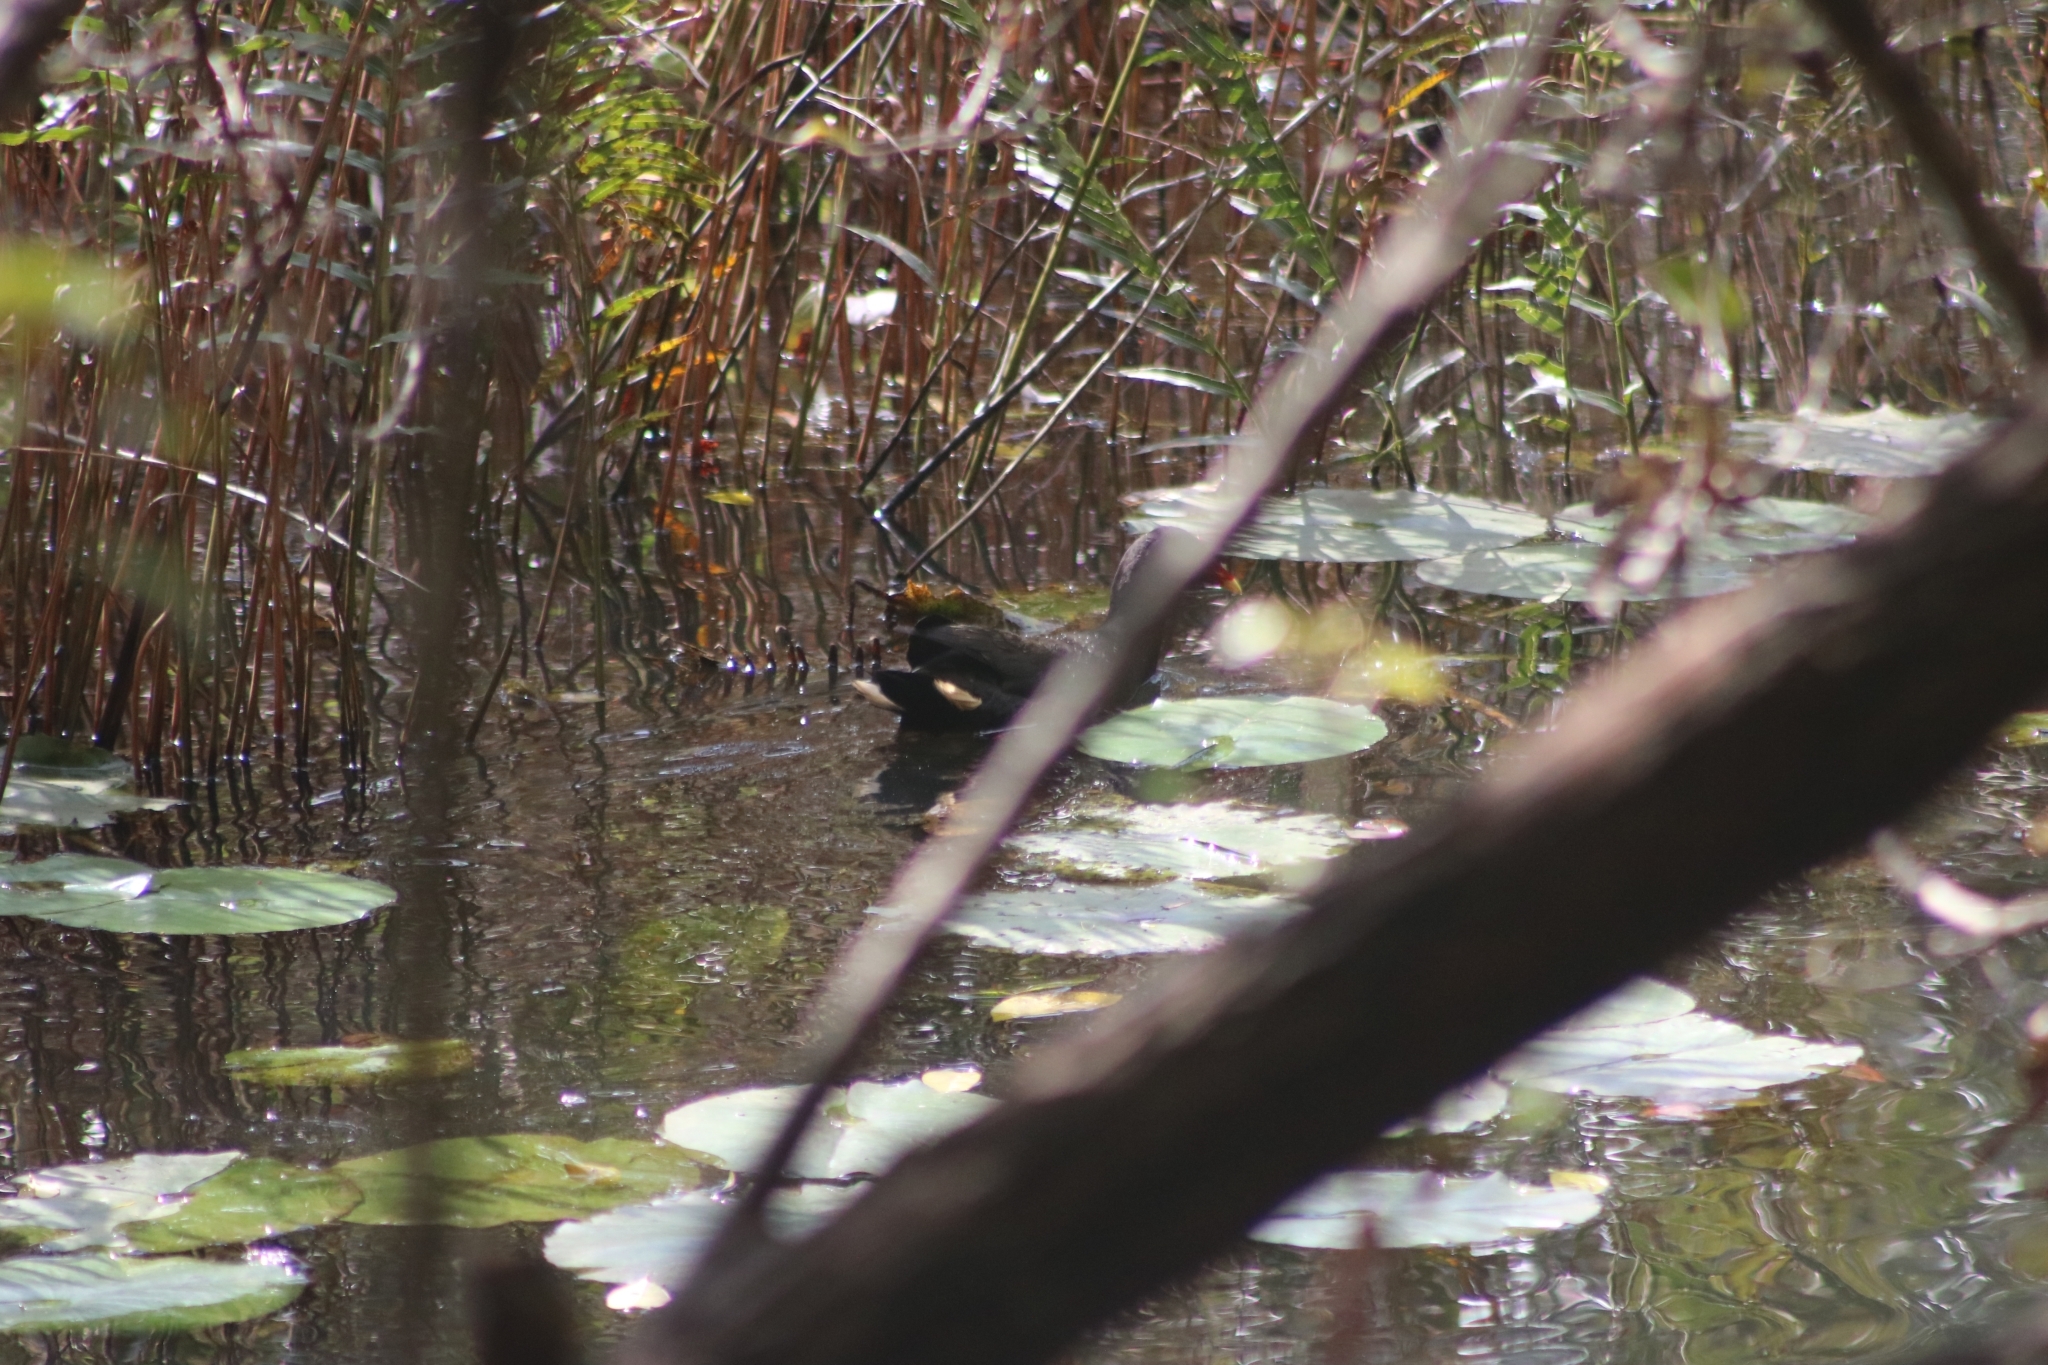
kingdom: Animalia
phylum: Chordata
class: Aves
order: Gruiformes
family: Rallidae
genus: Gallinula
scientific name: Gallinula tenebrosa
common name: Dusky moorhen
